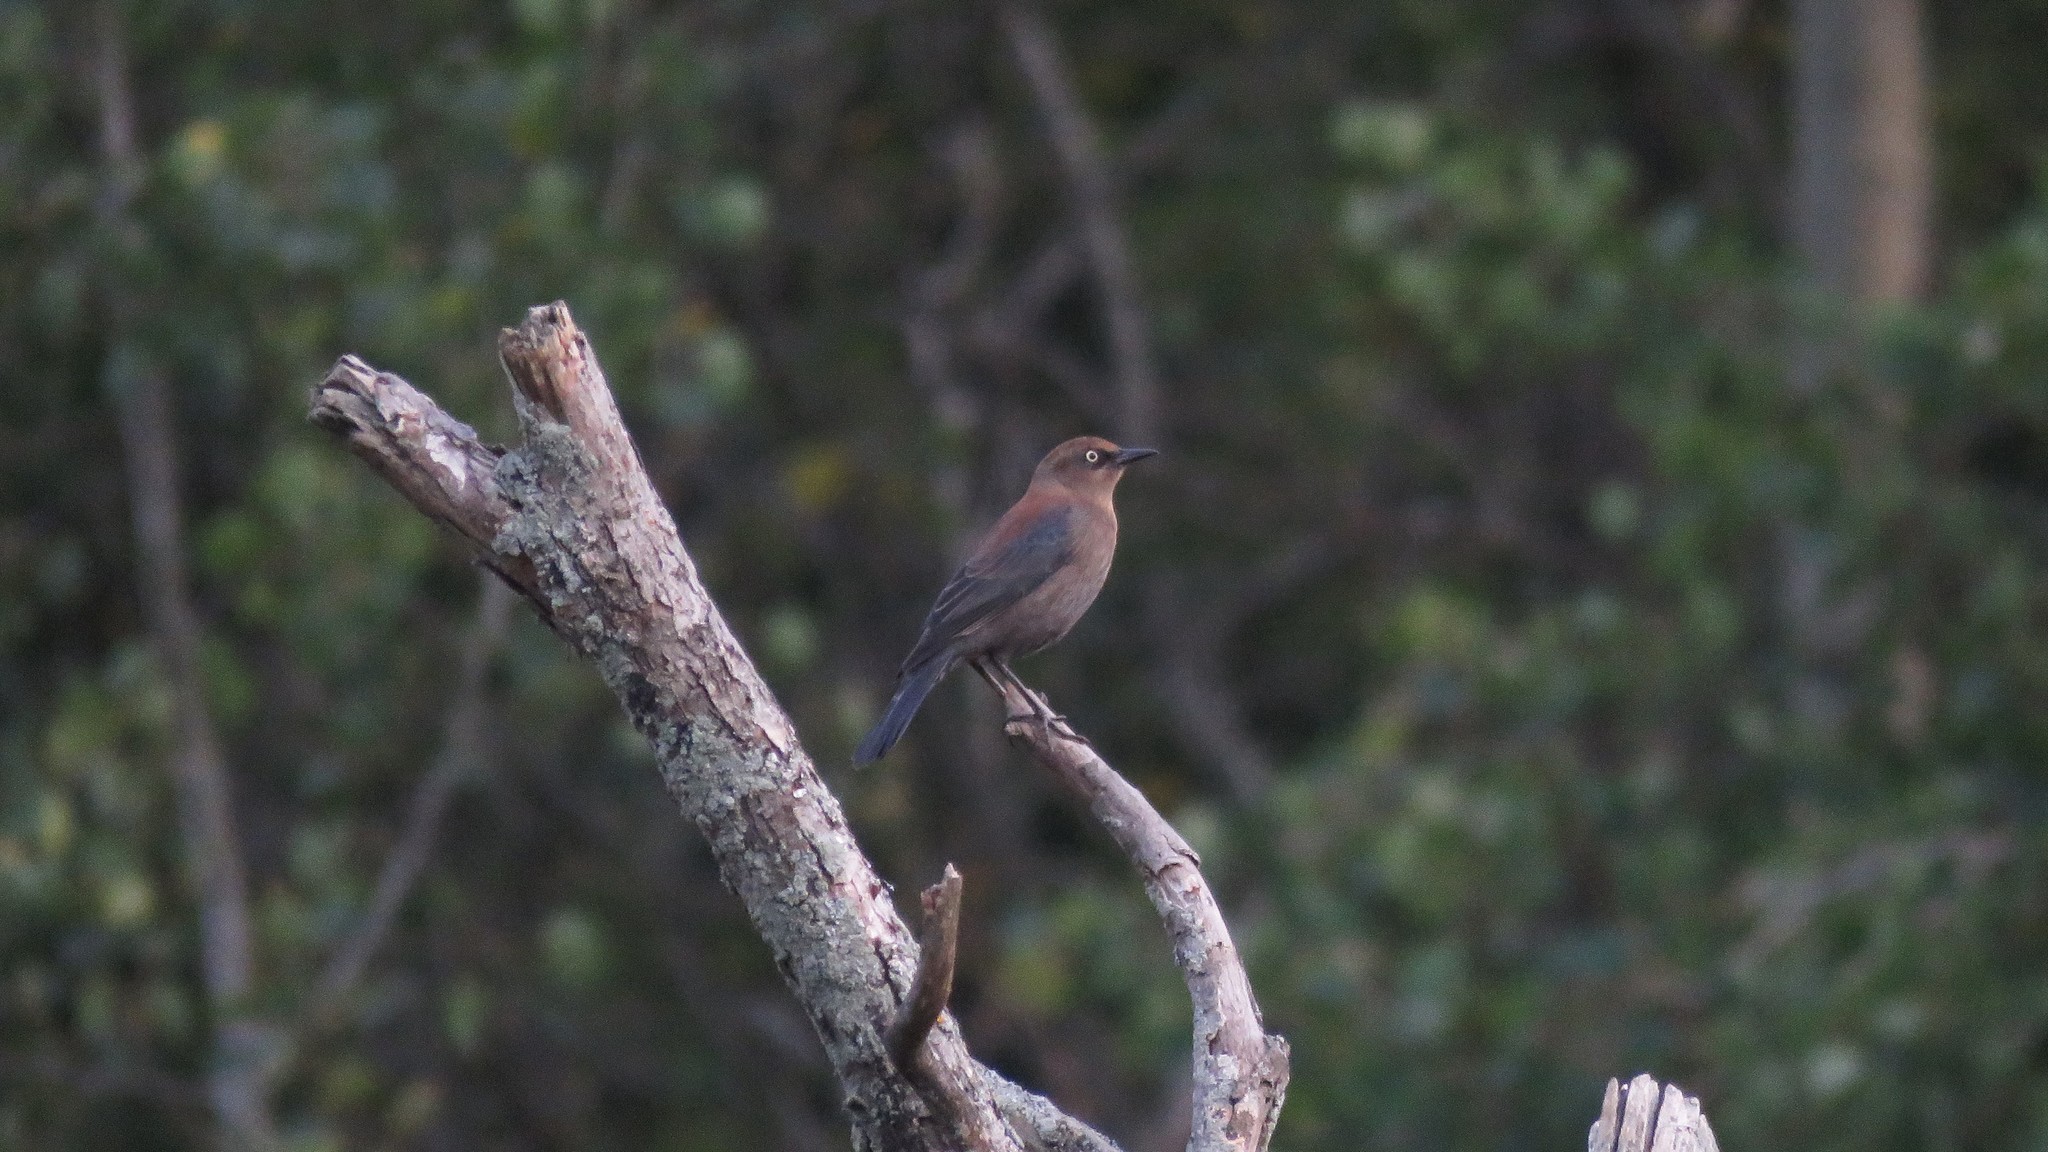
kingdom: Animalia
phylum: Chordata
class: Aves
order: Passeriformes
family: Icteridae
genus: Euphagus
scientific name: Euphagus carolinus
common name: Rusty blackbird
